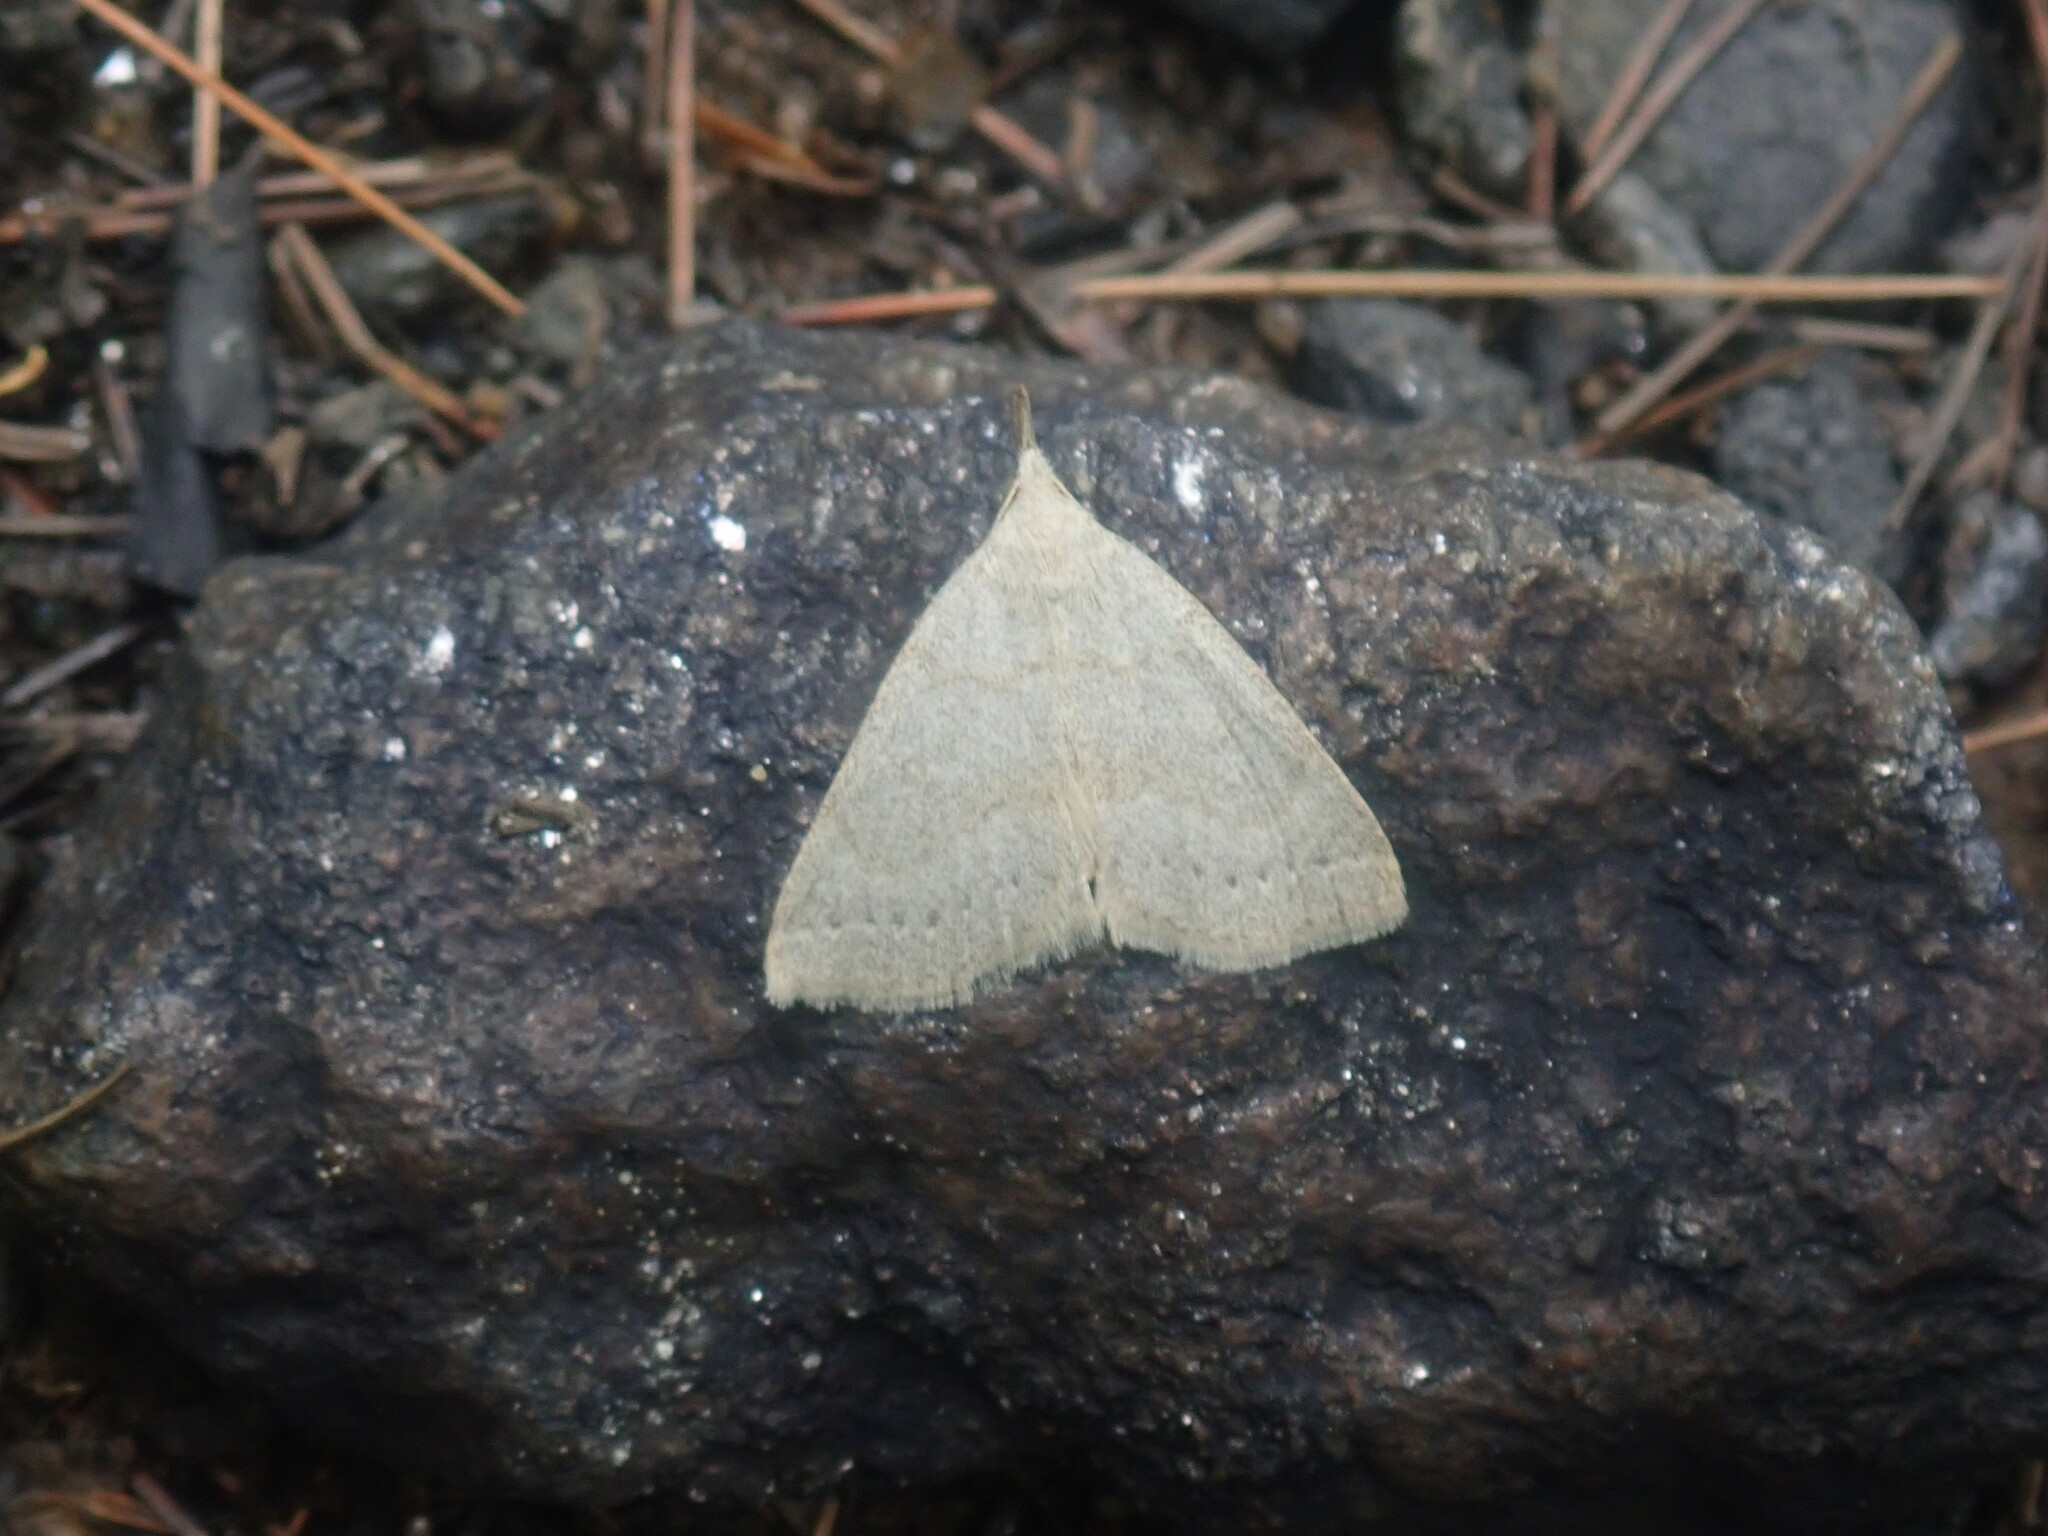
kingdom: Animalia
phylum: Arthropoda
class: Insecta
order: Lepidoptera
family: Erebidae
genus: Macrochilo
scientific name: Macrochilo morbidalis
